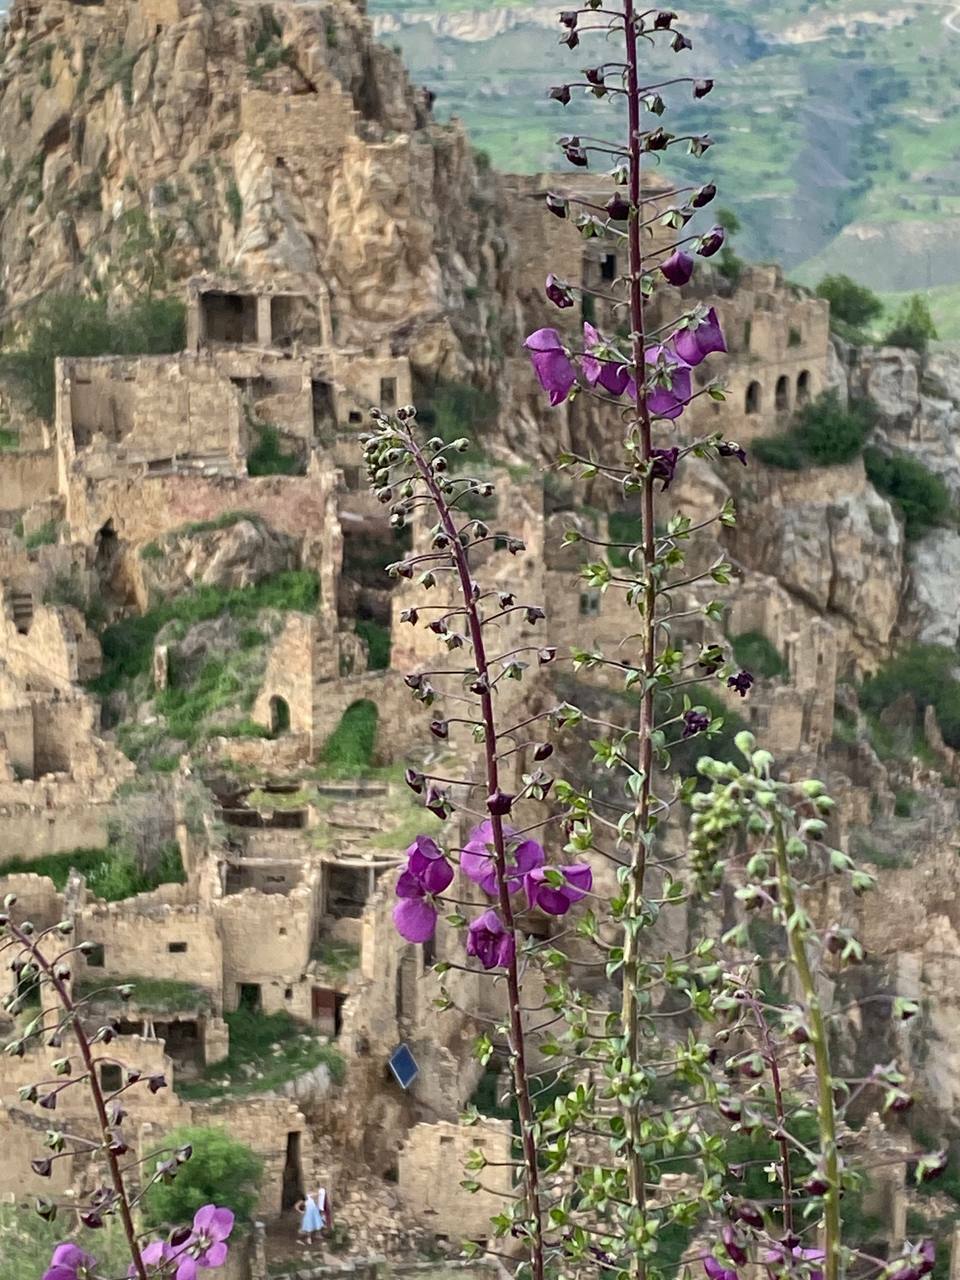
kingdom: Plantae
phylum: Tracheophyta
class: Magnoliopsida
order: Lamiales
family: Scrophulariaceae
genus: Verbascum
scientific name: Verbascum phoeniceum
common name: Purple mullein
